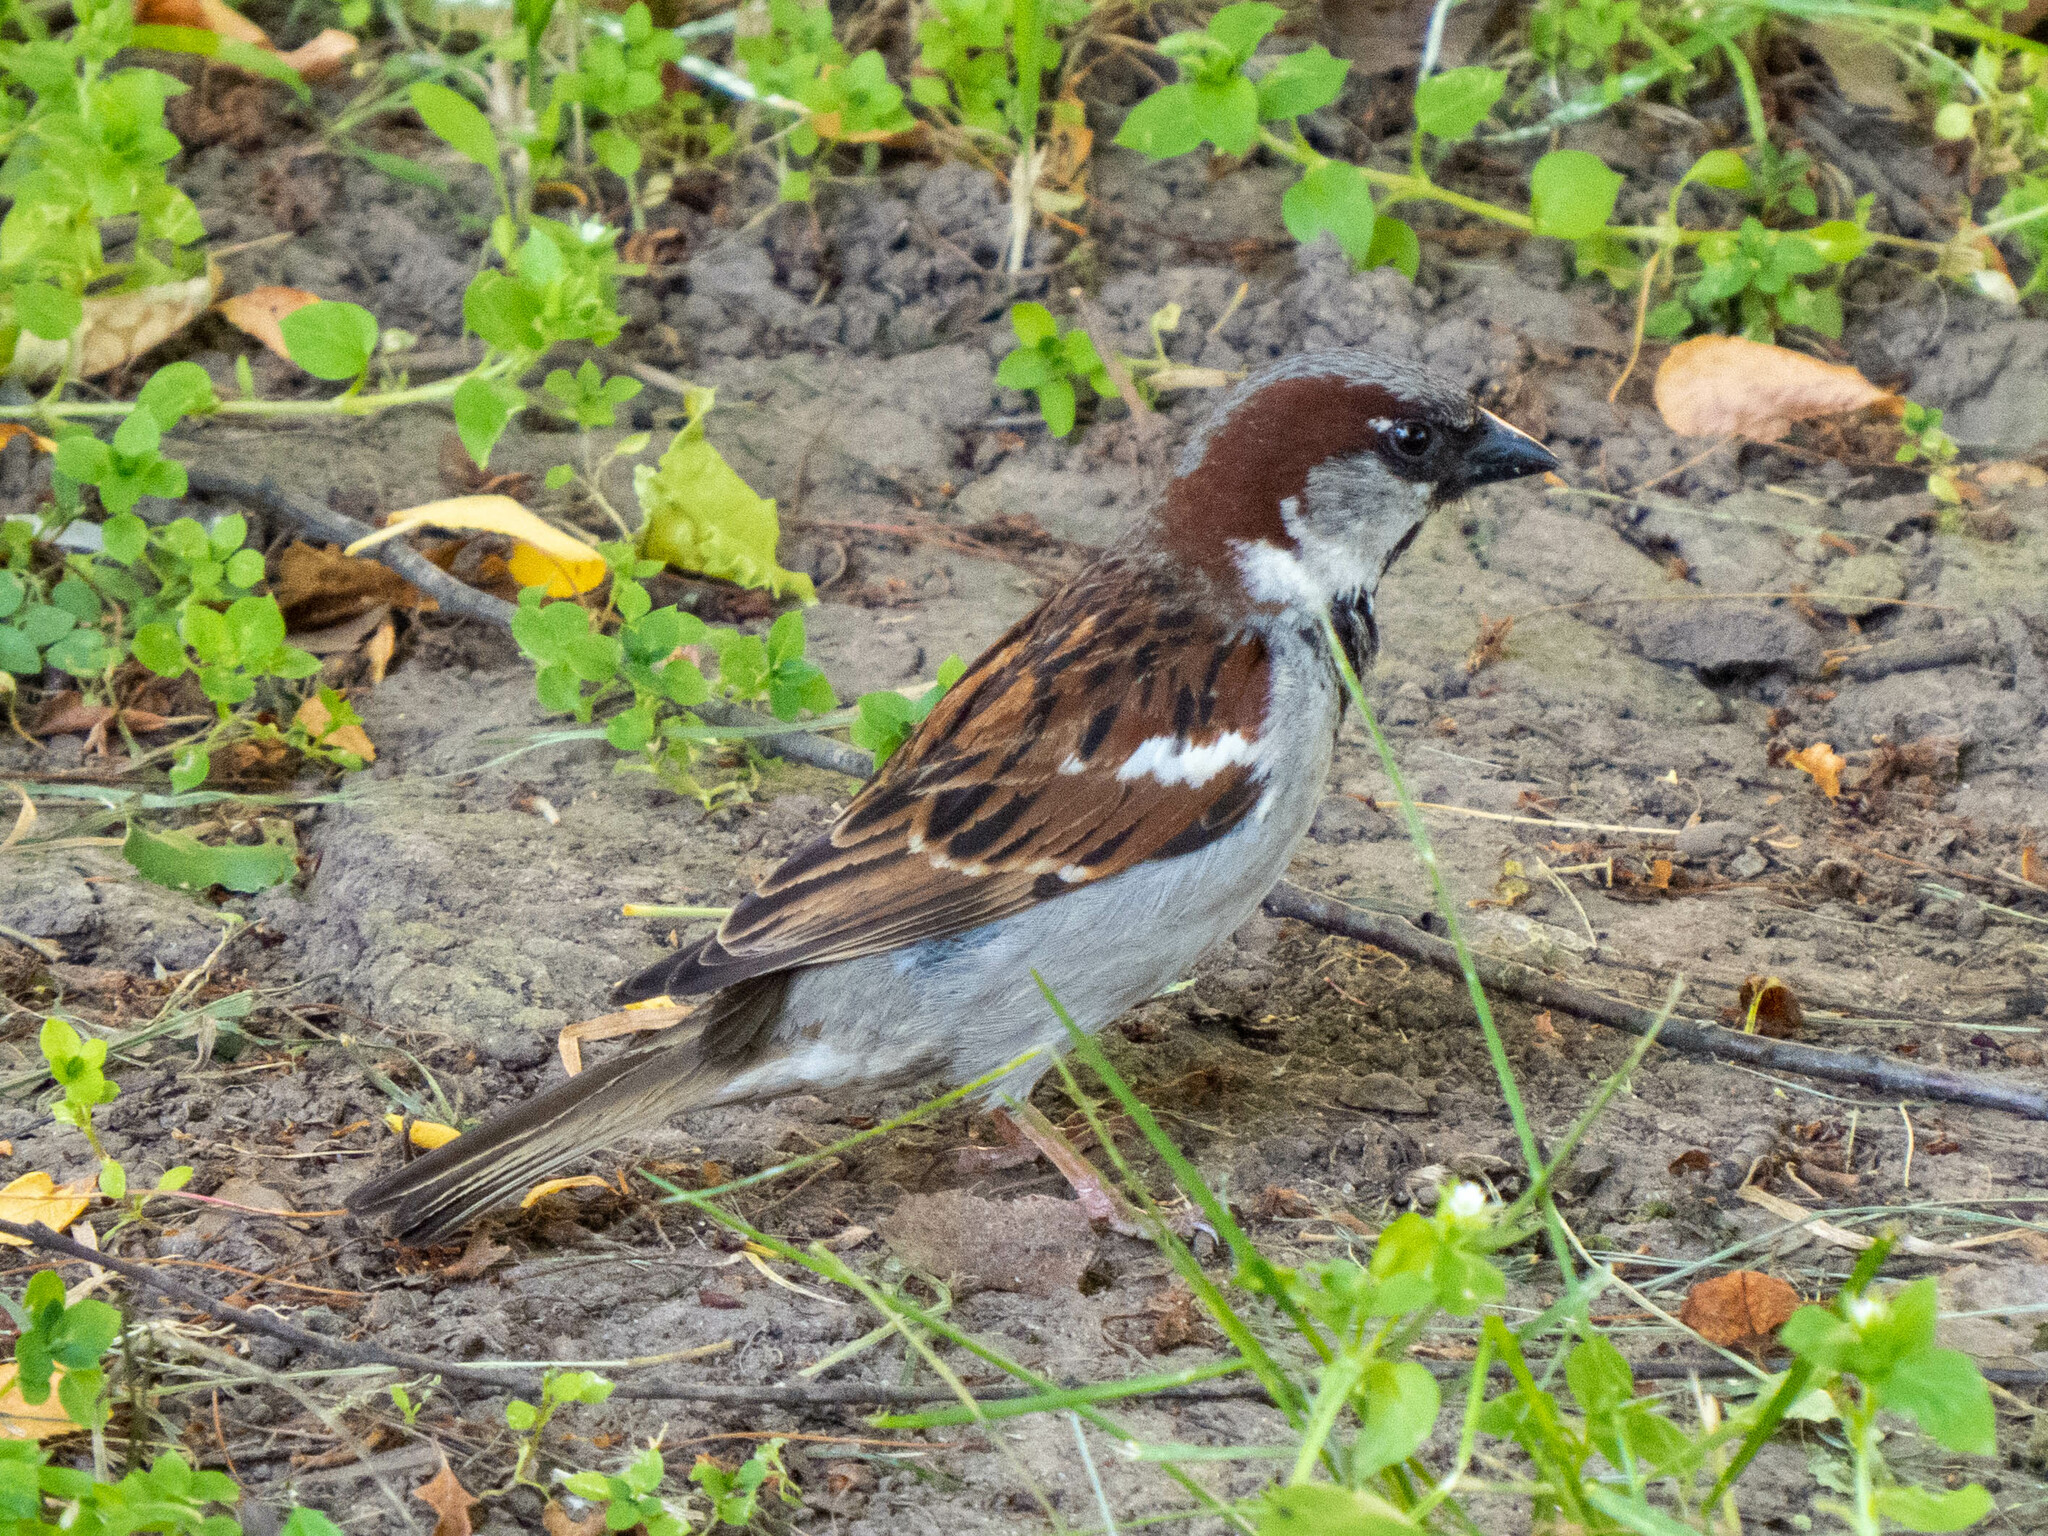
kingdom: Animalia
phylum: Chordata
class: Aves
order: Passeriformes
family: Passeridae
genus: Passer
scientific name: Passer domesticus
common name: House sparrow
